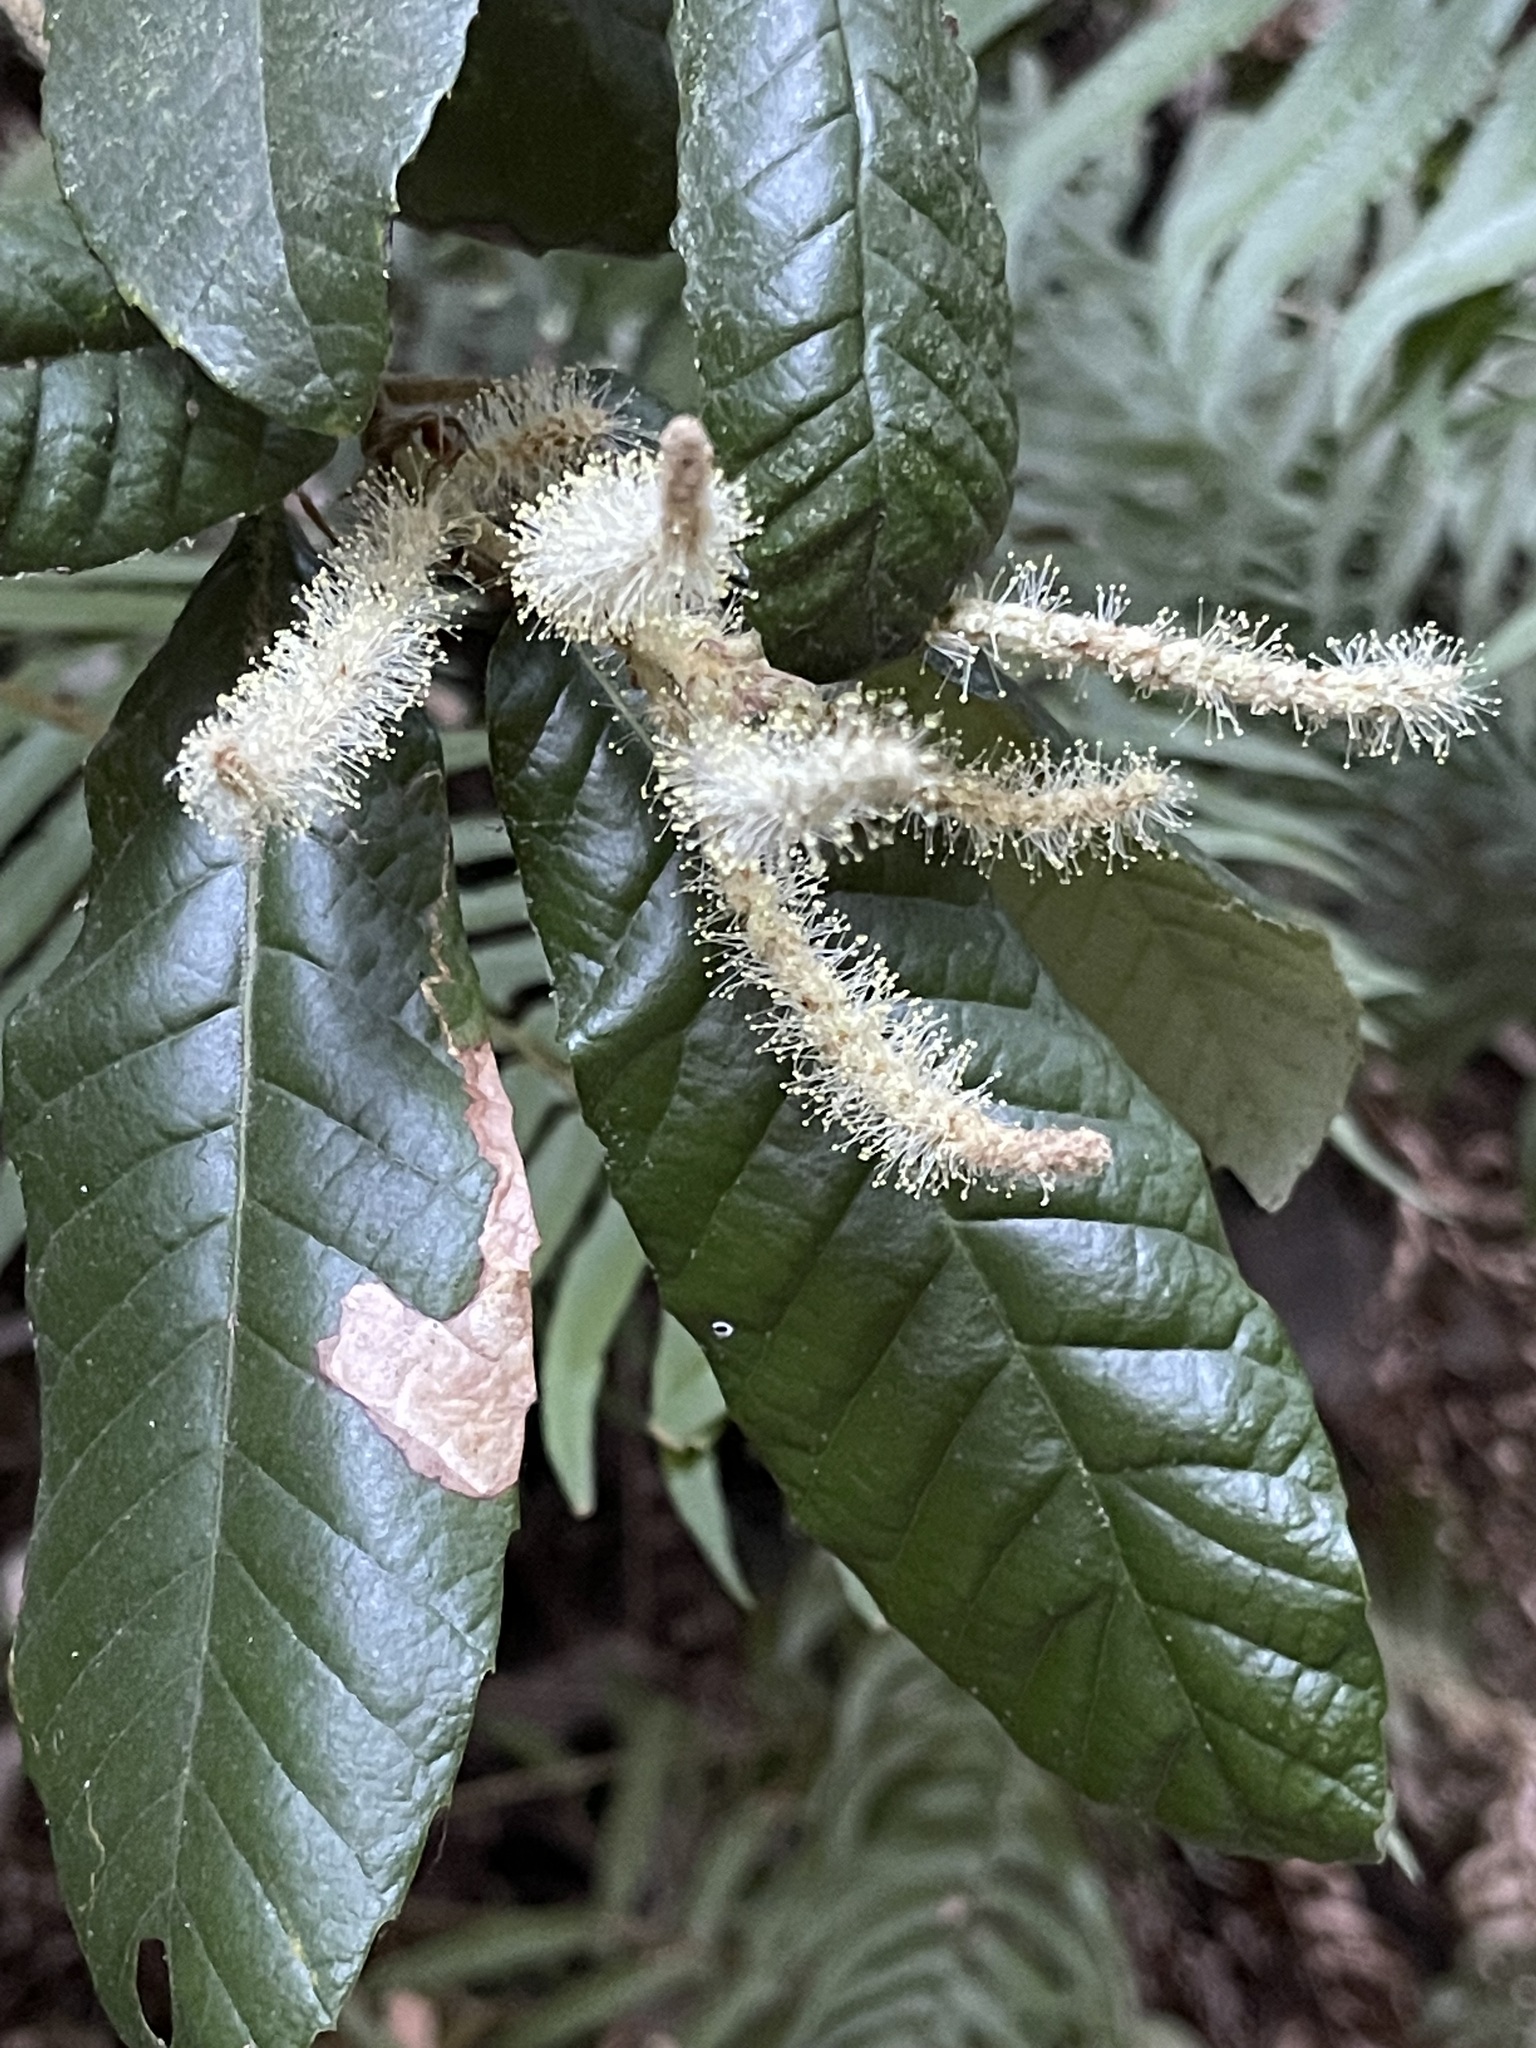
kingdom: Plantae
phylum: Tracheophyta
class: Magnoliopsida
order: Fagales
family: Fagaceae
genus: Notholithocarpus
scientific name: Notholithocarpus densiflorus
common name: Tan bark oak
